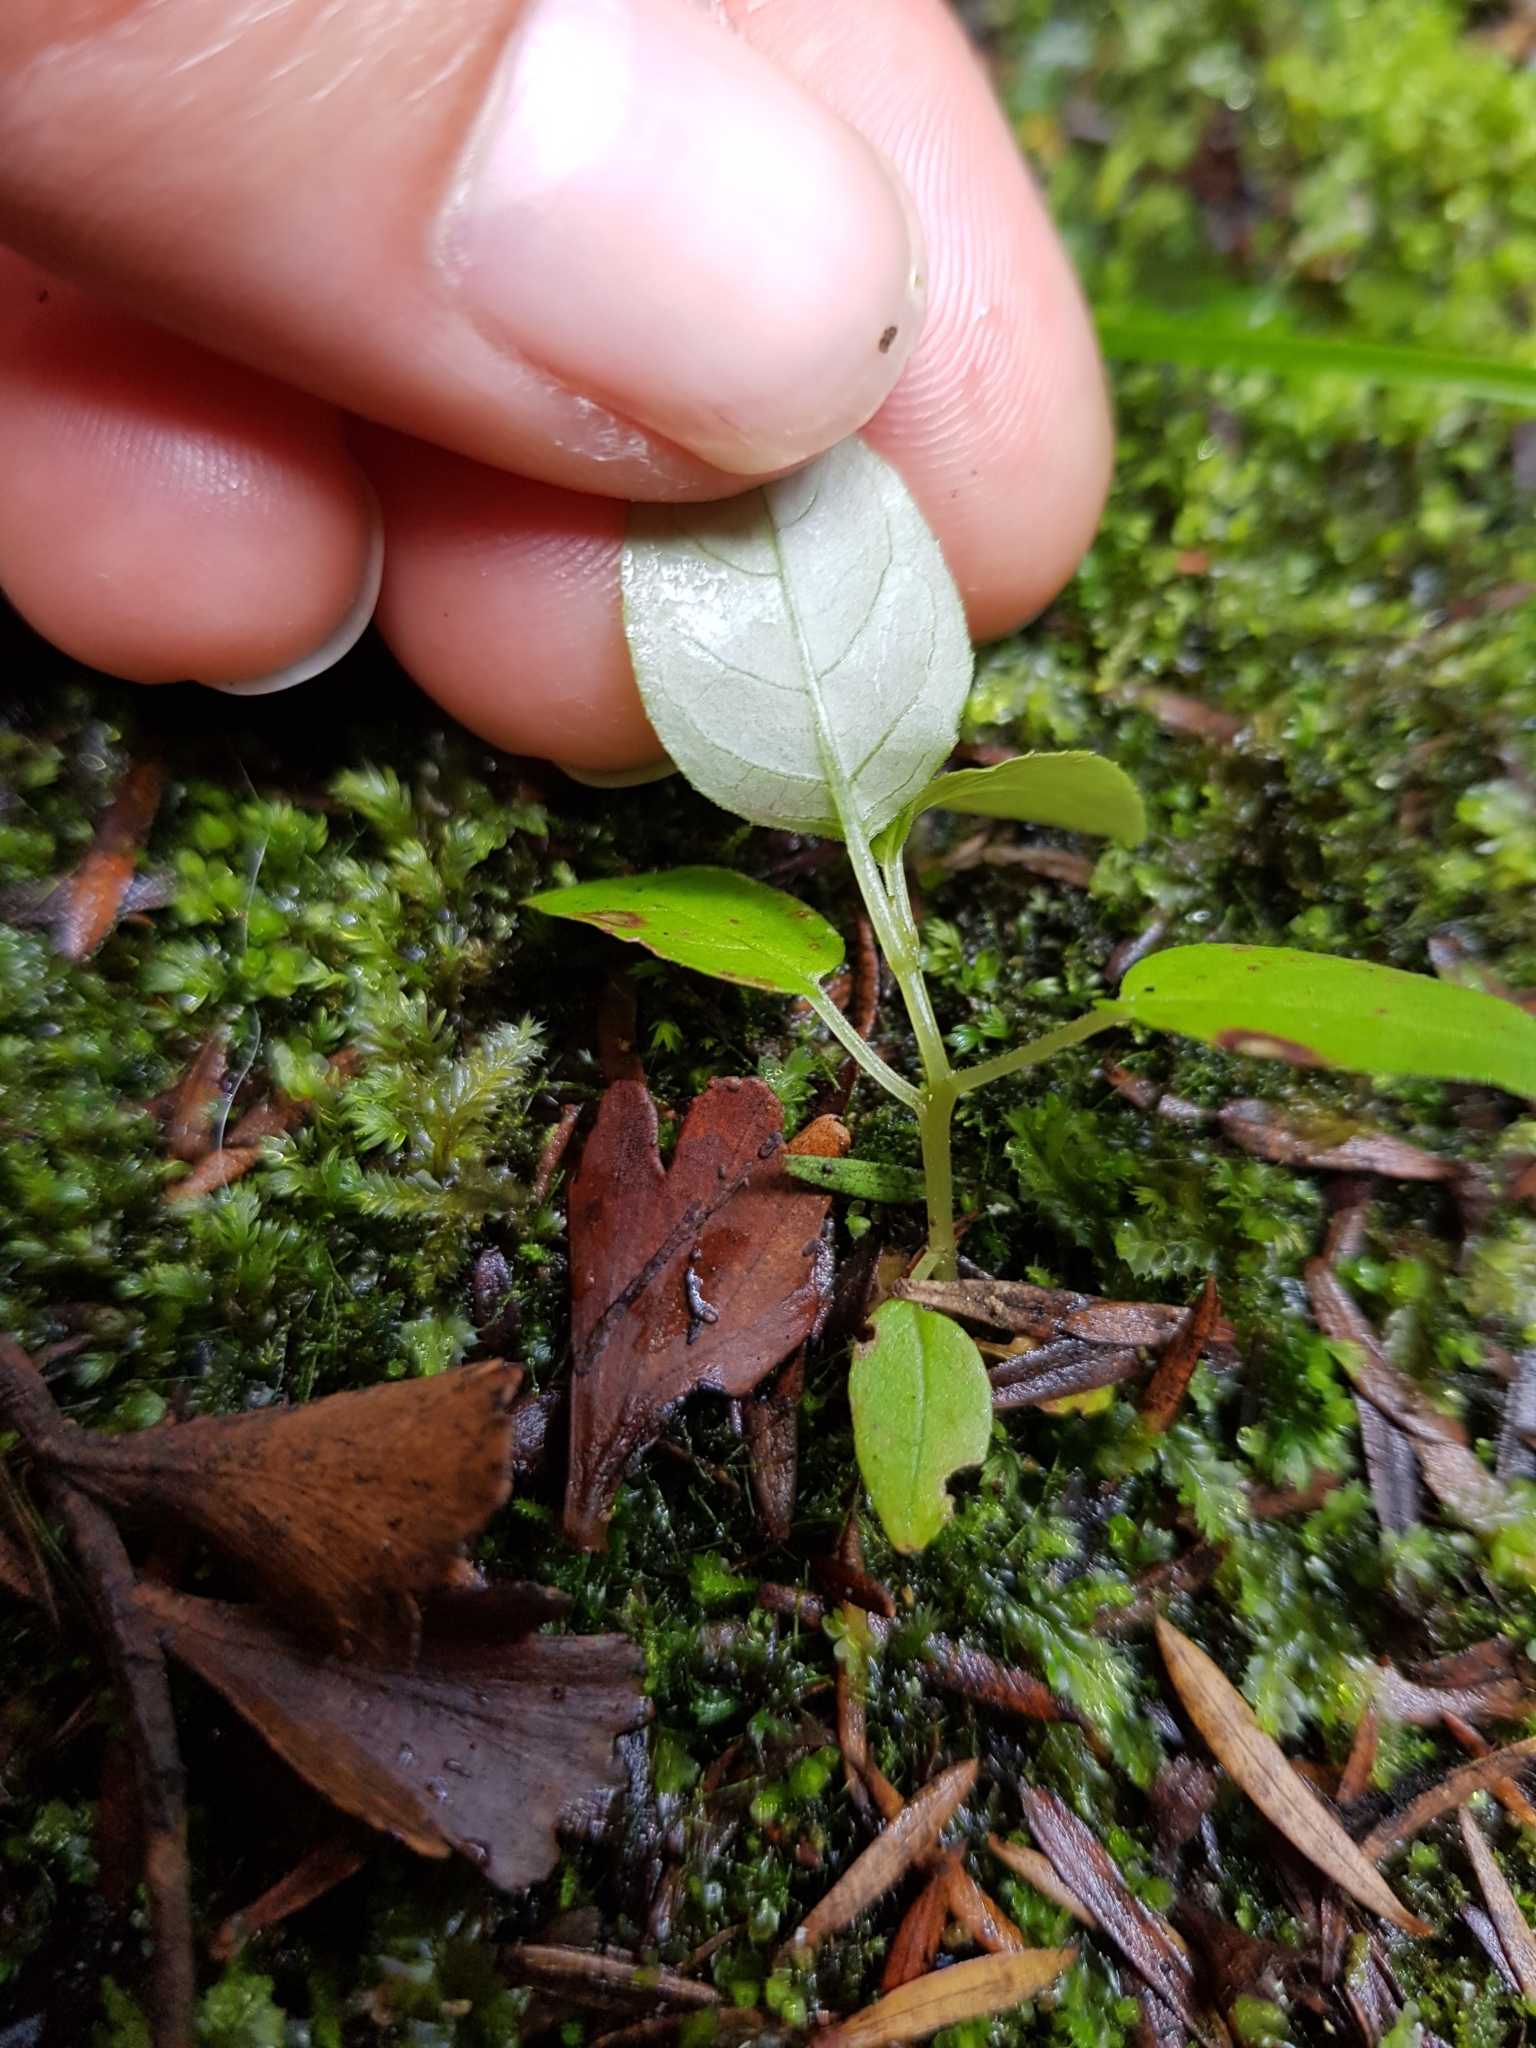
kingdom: Plantae
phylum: Tracheophyta
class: Magnoliopsida
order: Myrtales
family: Onagraceae
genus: Fuchsia
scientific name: Fuchsia excorticata
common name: Tree fuchsia
